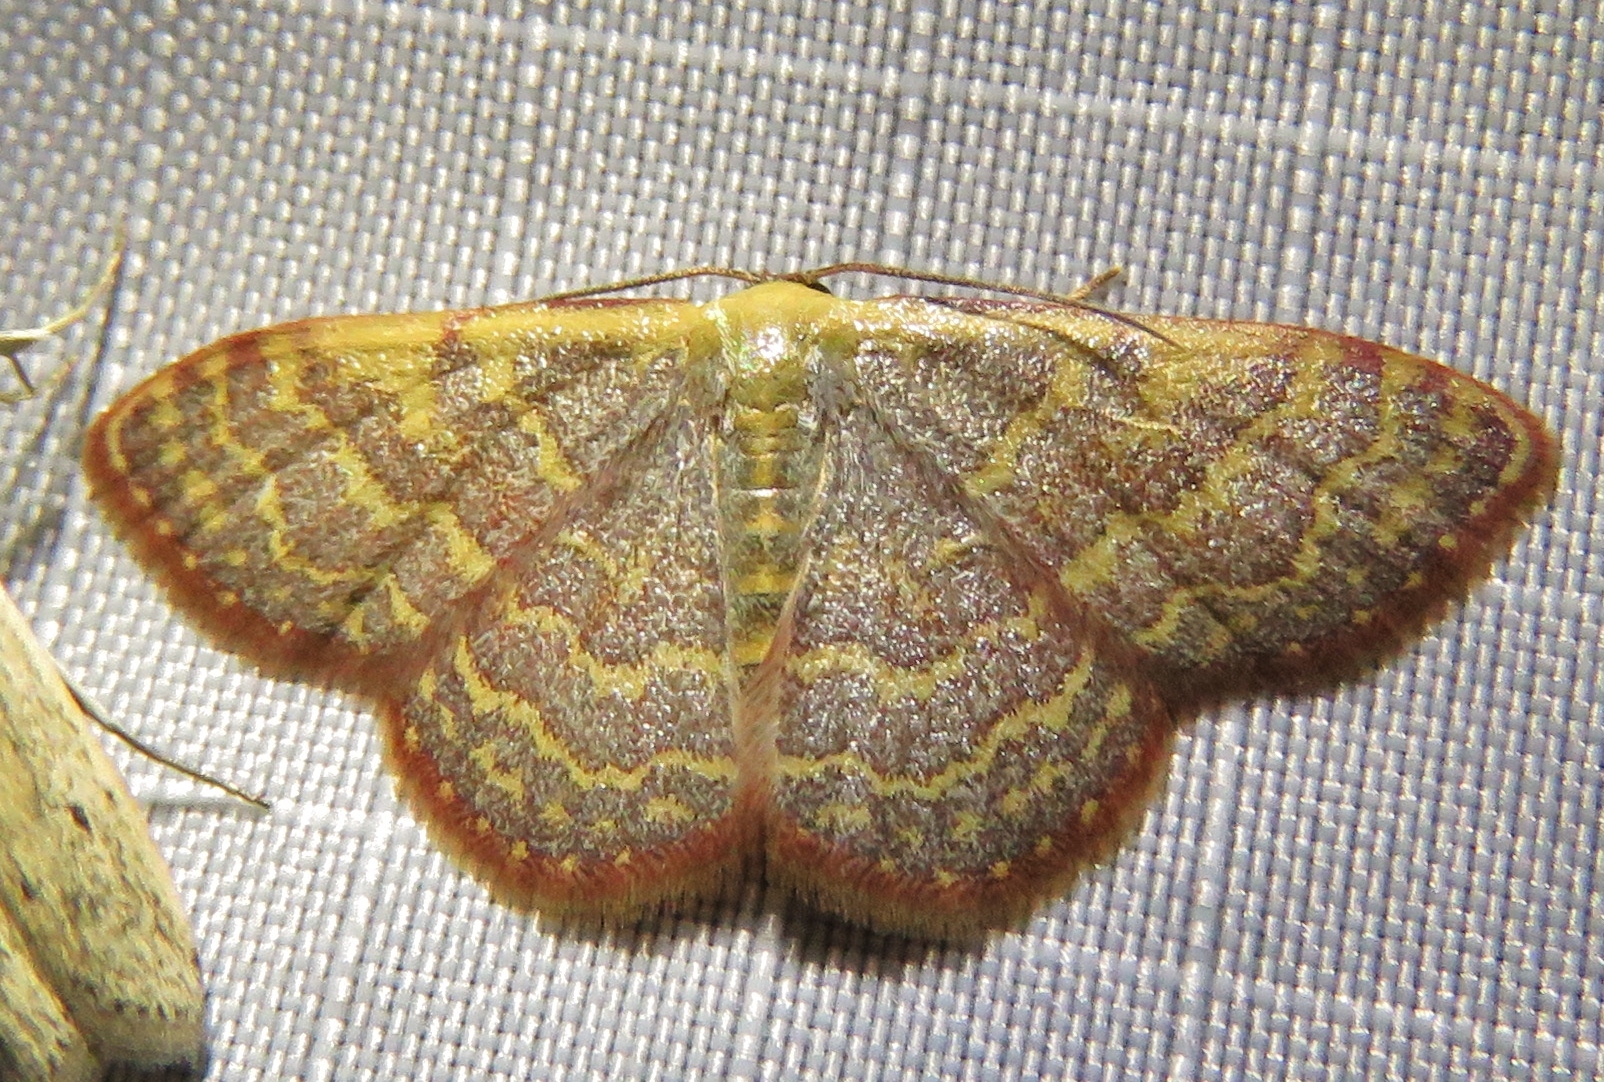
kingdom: Animalia
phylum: Arthropoda
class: Insecta
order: Lepidoptera
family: Geometridae
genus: Leptostales
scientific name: Leptostales pannaria
